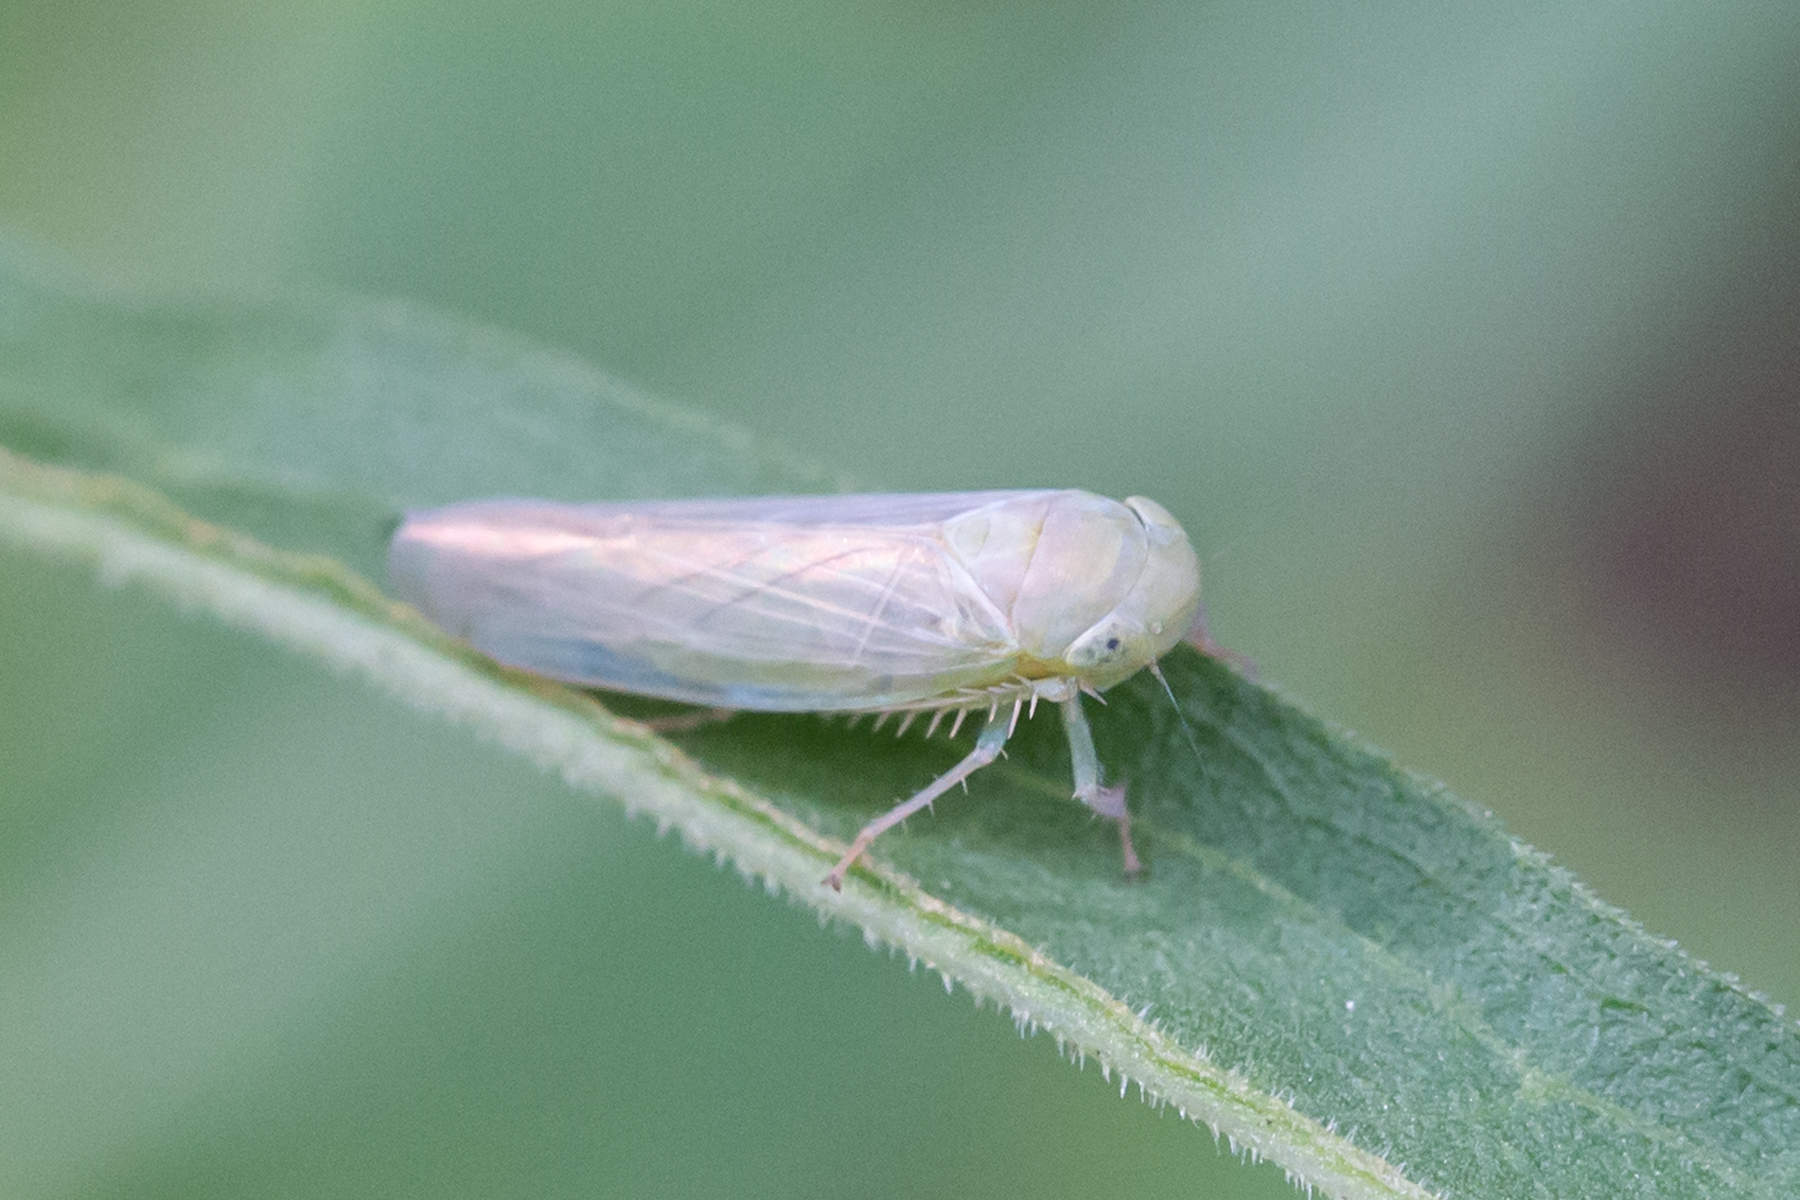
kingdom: Animalia
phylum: Arthropoda
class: Insecta
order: Hemiptera
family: Cicadellidae
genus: Chlorotettix
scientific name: Chlorotettix galbanatus
